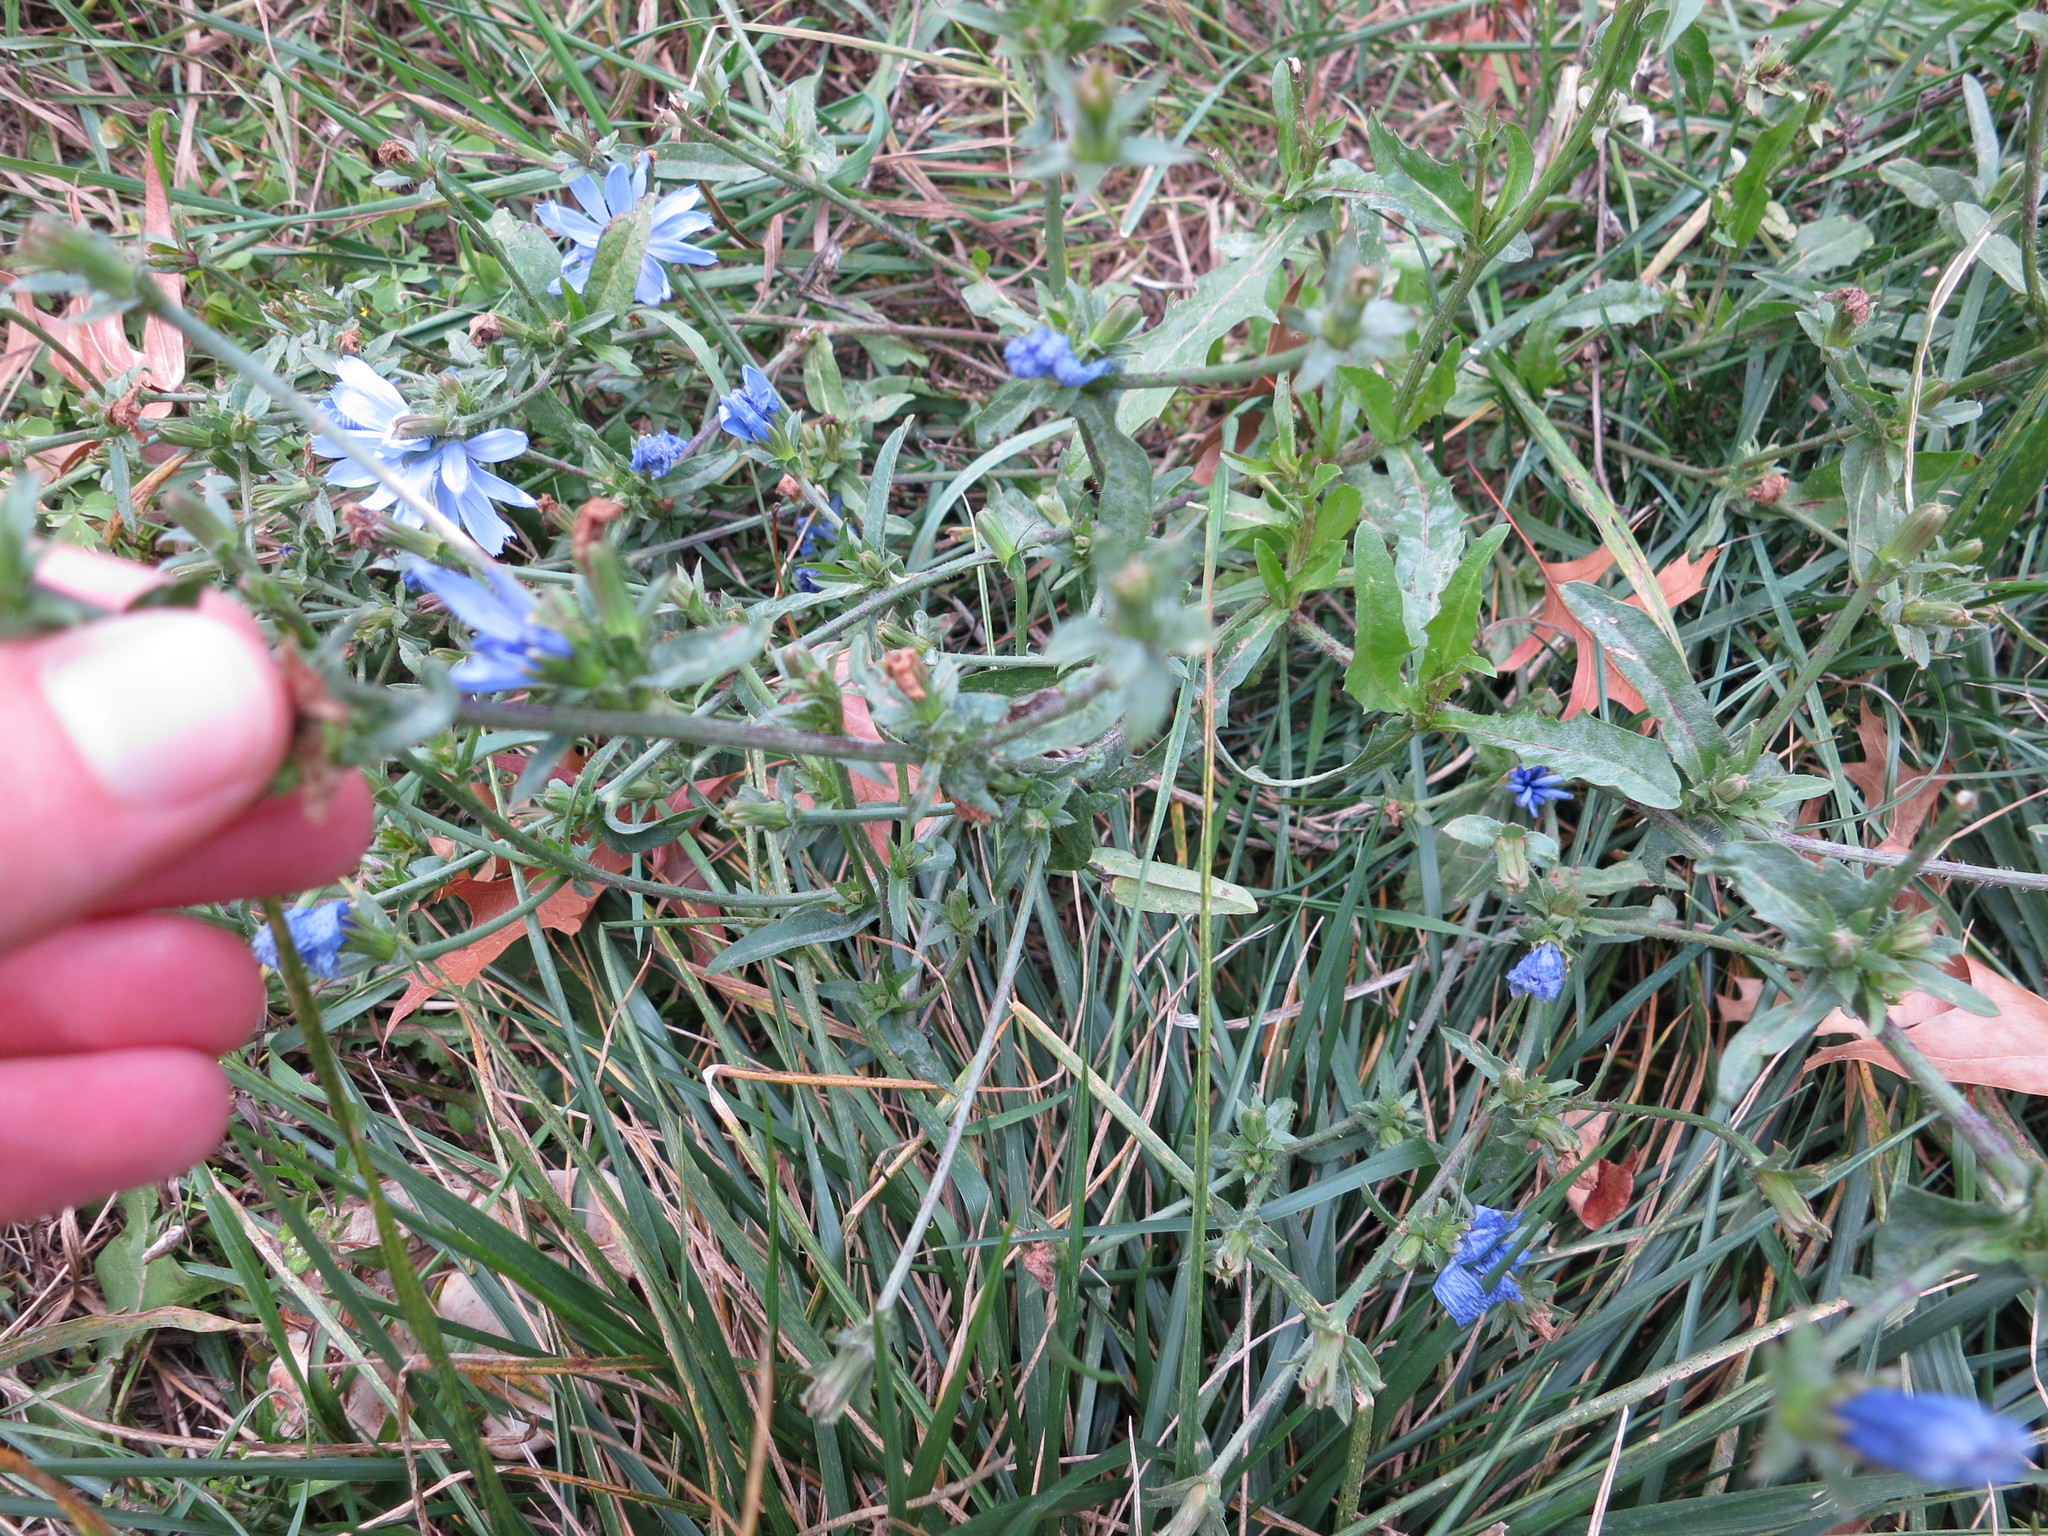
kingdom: Plantae
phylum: Tracheophyta
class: Magnoliopsida
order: Asterales
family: Asteraceae
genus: Cichorium
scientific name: Cichorium intybus
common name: Chicory
